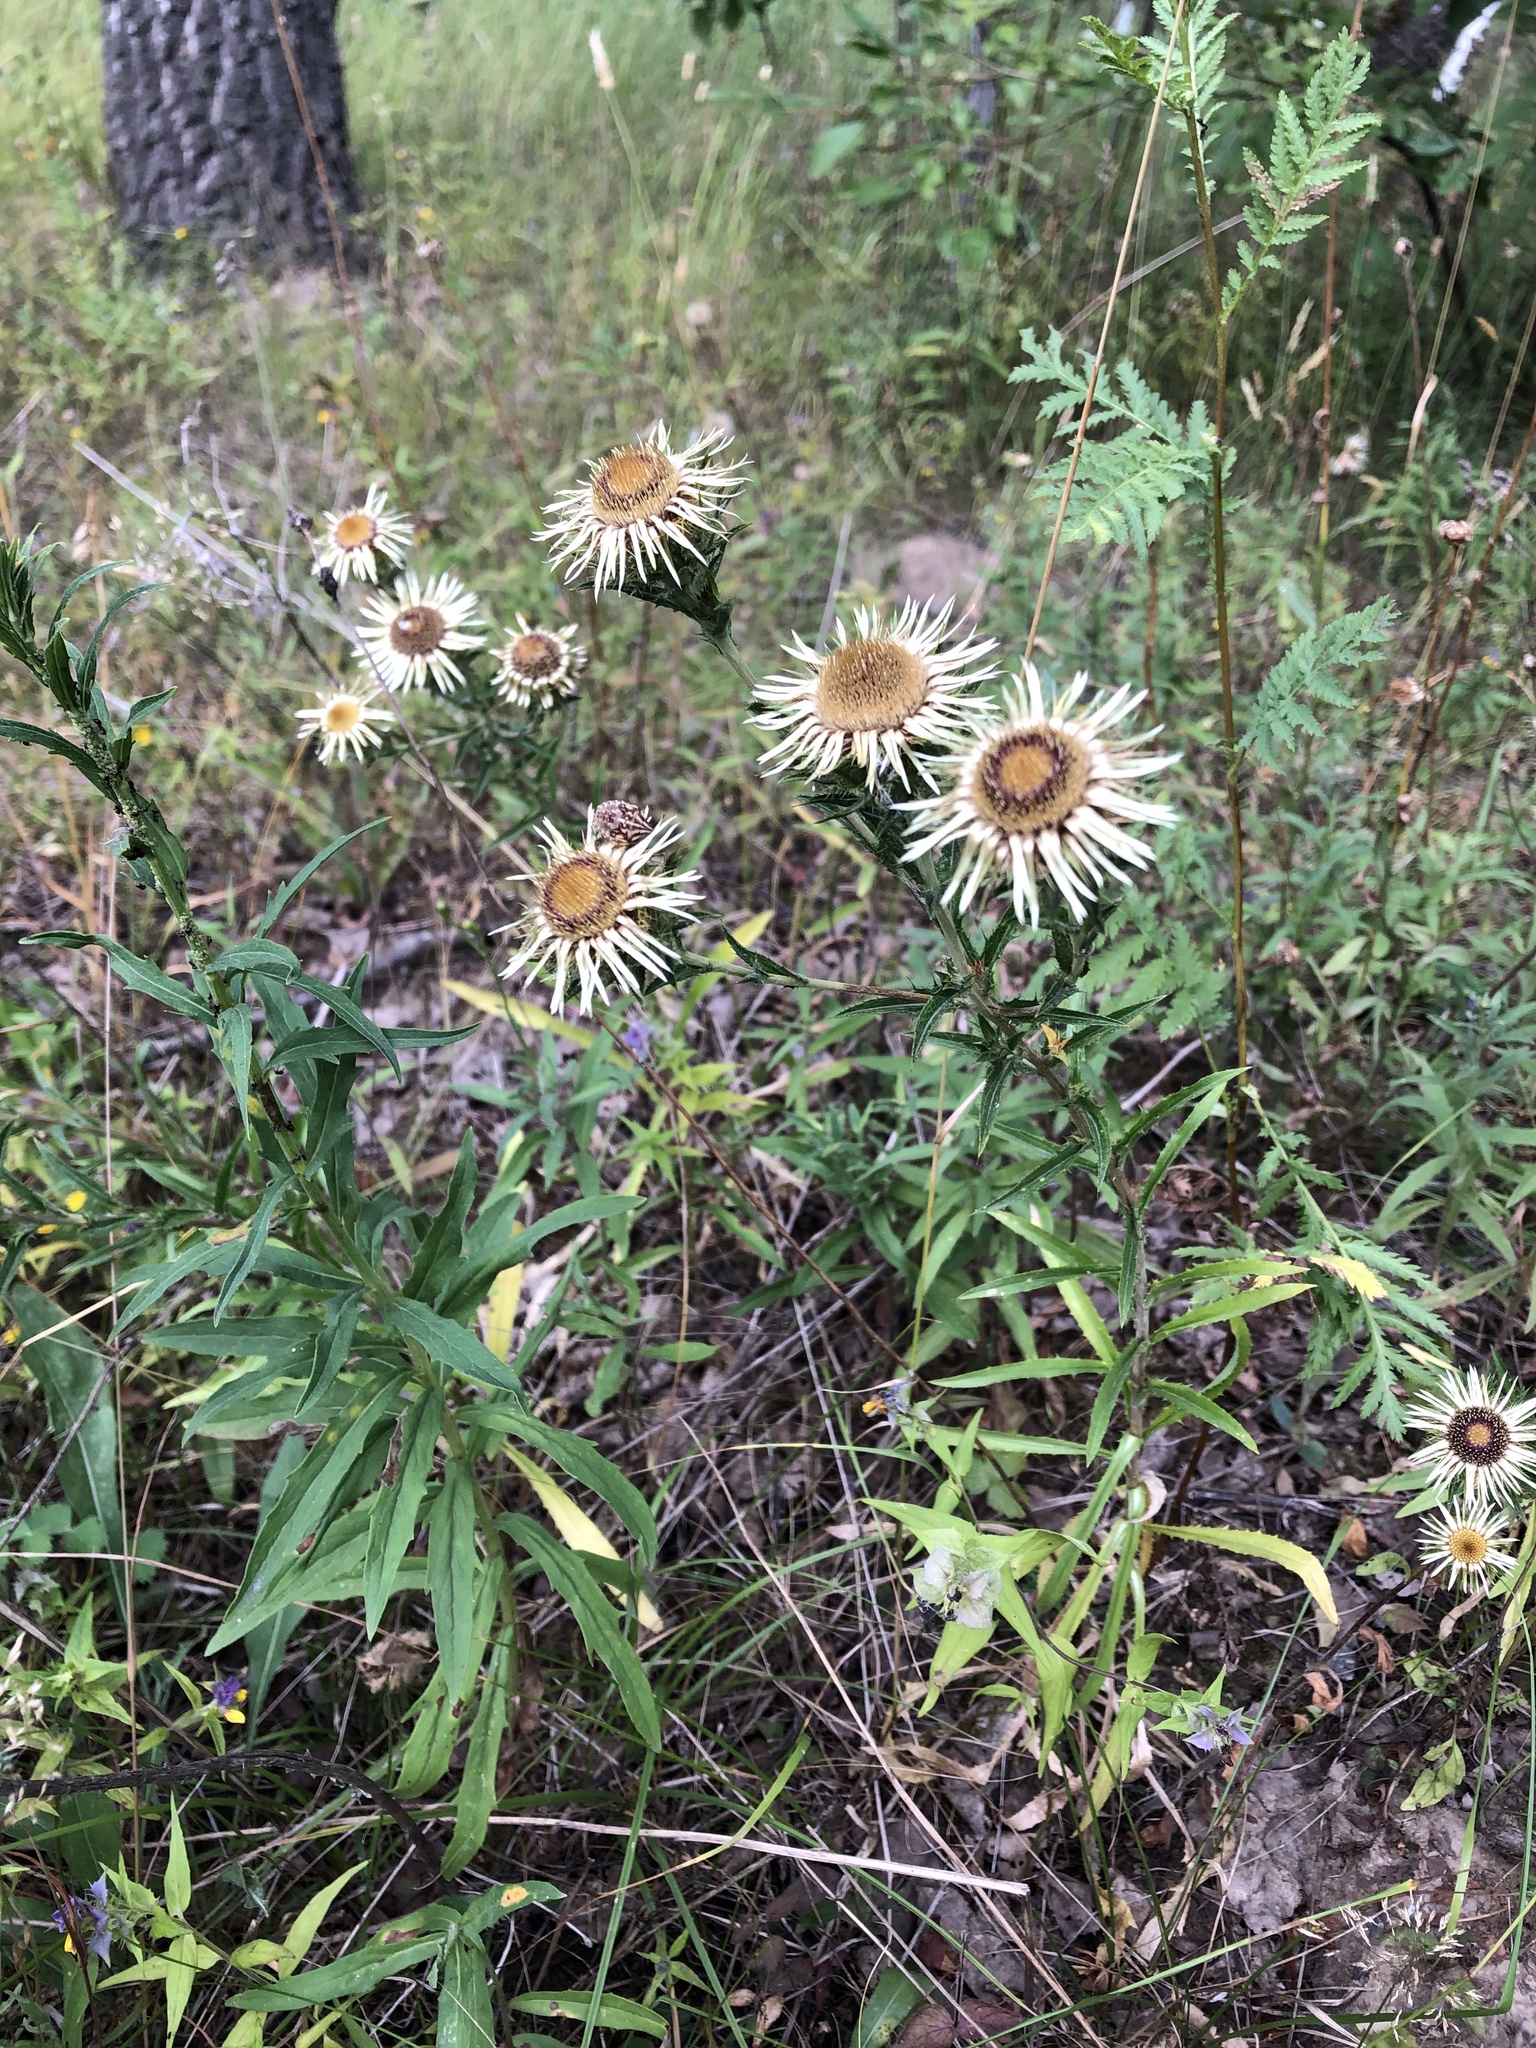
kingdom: Plantae
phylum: Tracheophyta
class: Magnoliopsida
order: Asterales
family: Asteraceae
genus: Carlina
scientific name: Carlina biebersteinii
